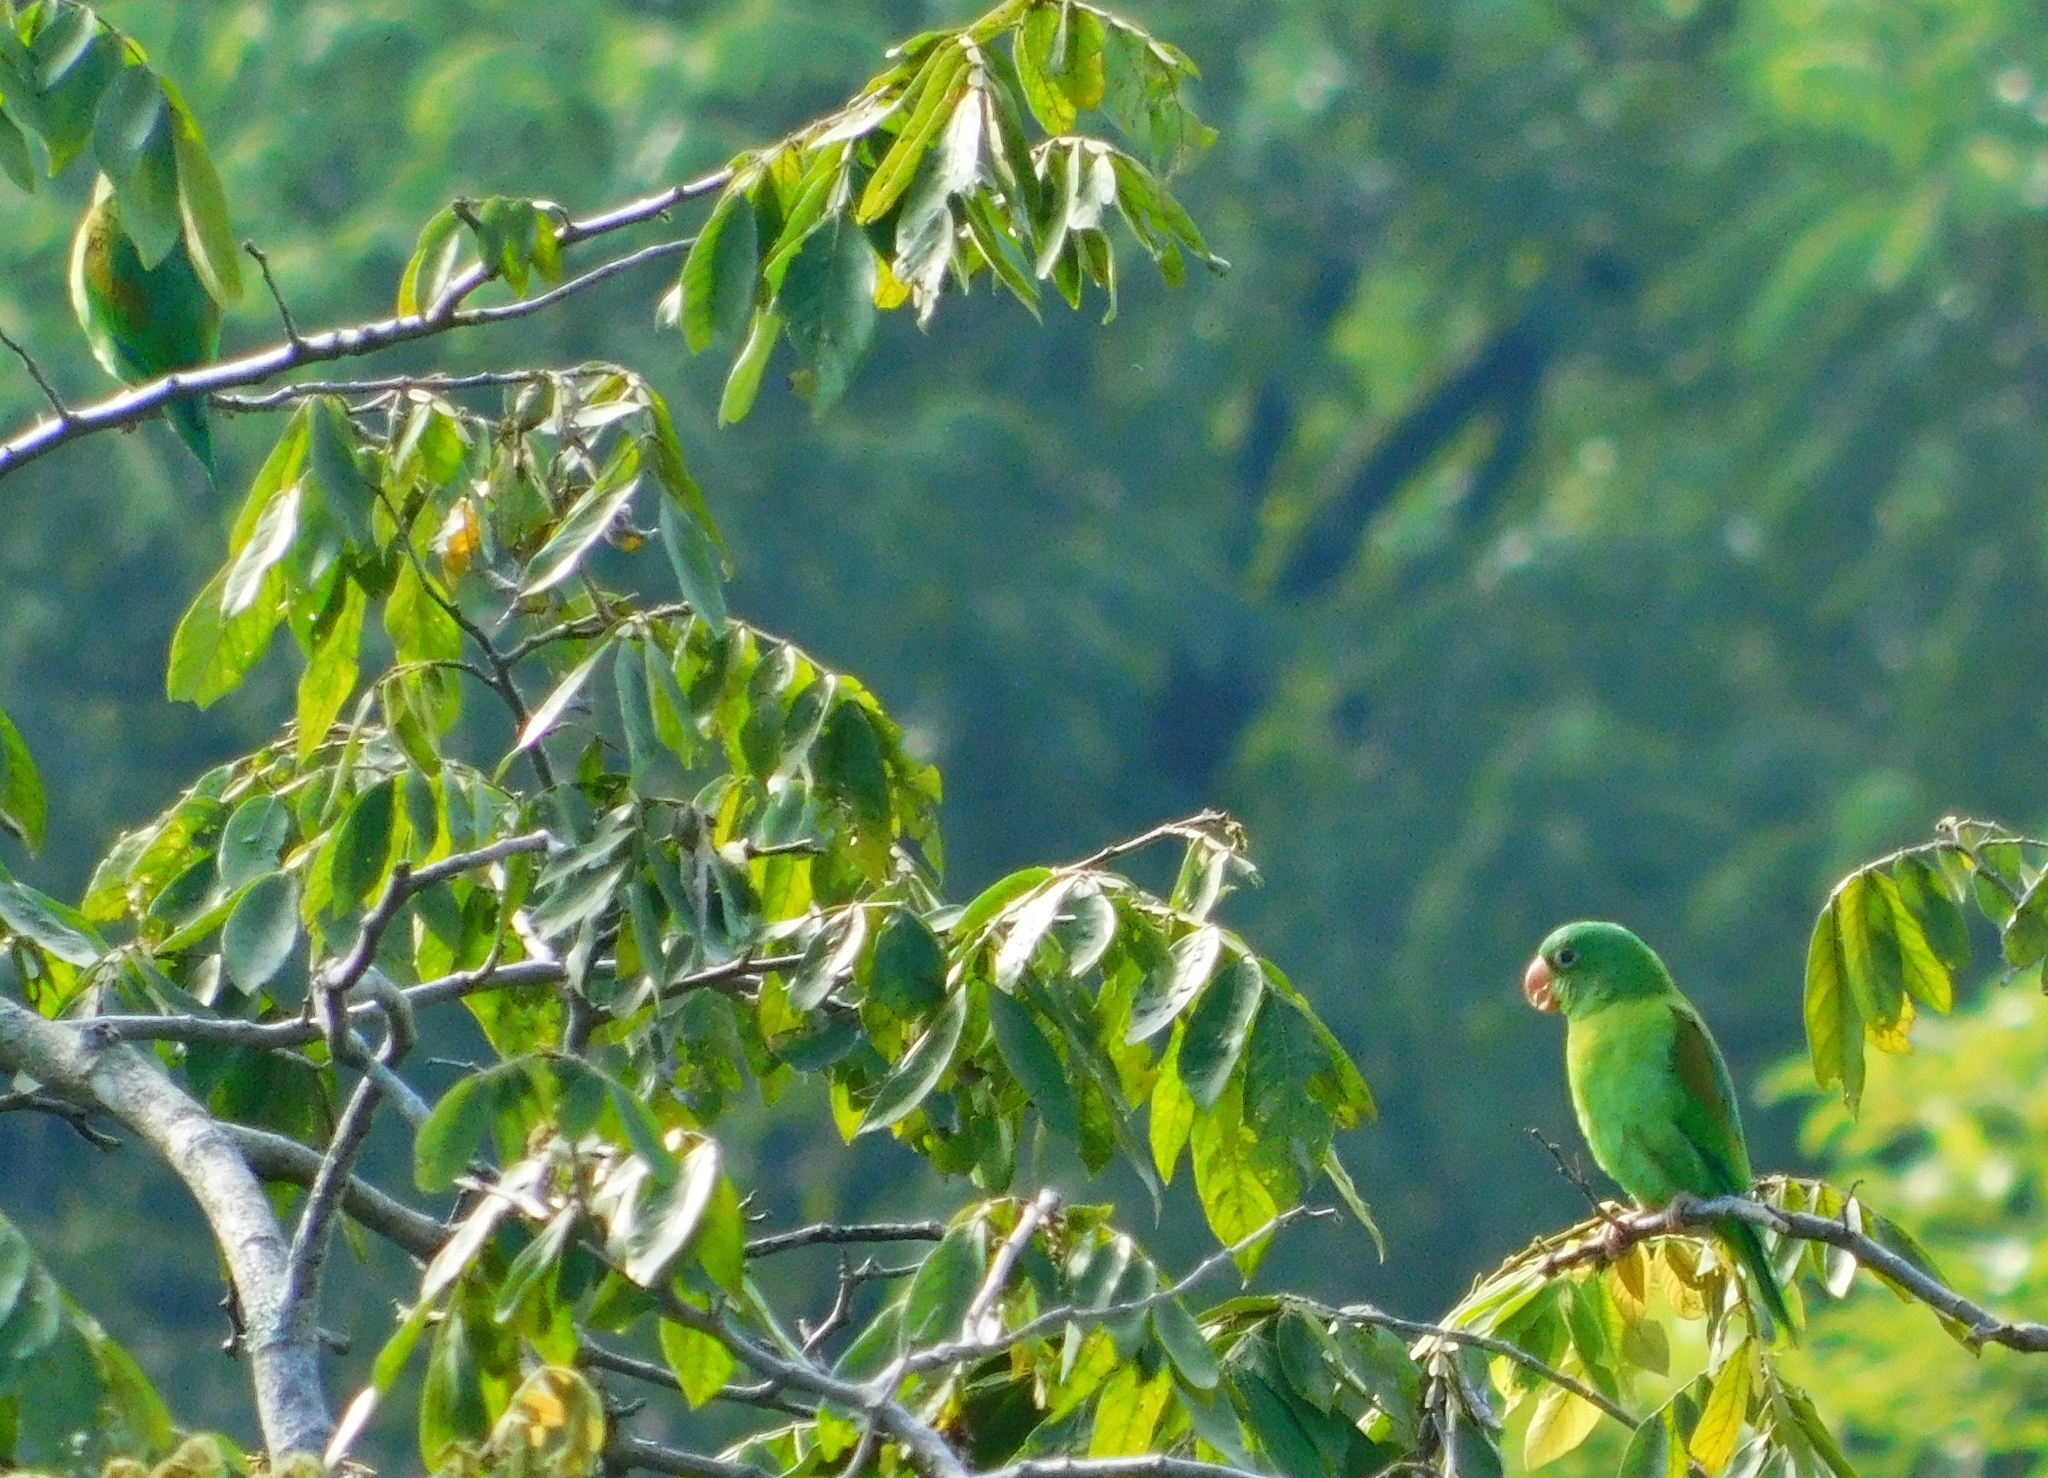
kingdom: Animalia
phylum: Chordata
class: Aves
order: Psittaciformes
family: Psittacidae
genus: Brotogeris
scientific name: Brotogeris jugularis
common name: Orange-chinned parakeet
